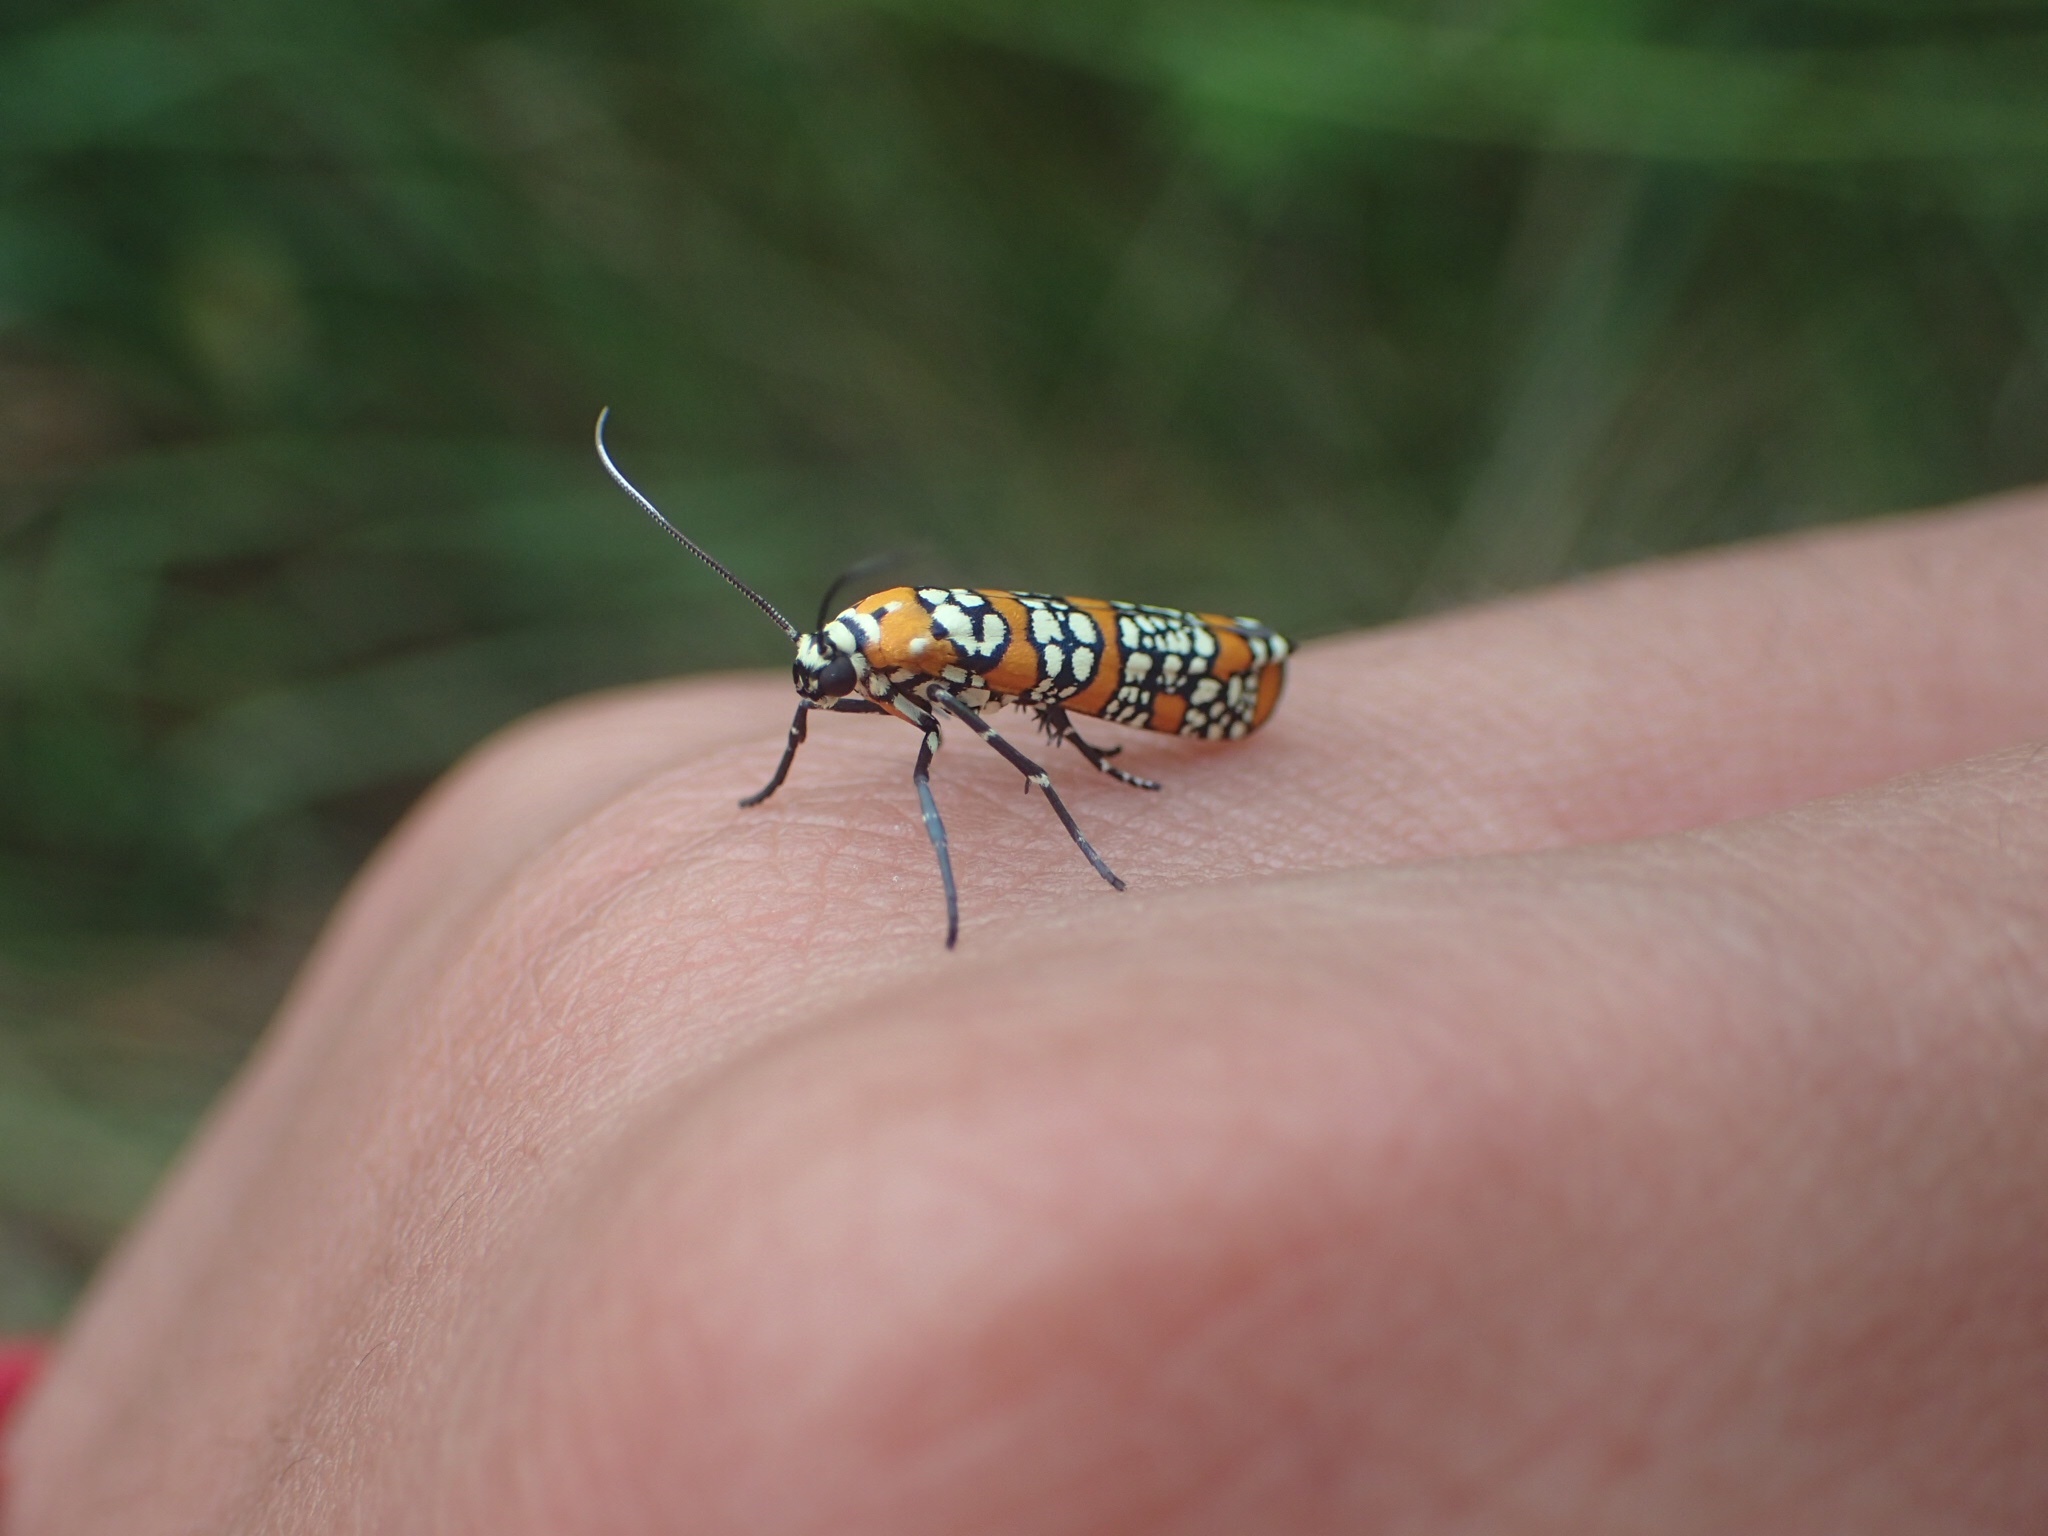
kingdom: Animalia
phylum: Arthropoda
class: Insecta
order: Lepidoptera
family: Attevidae
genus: Atteva
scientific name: Atteva punctella
